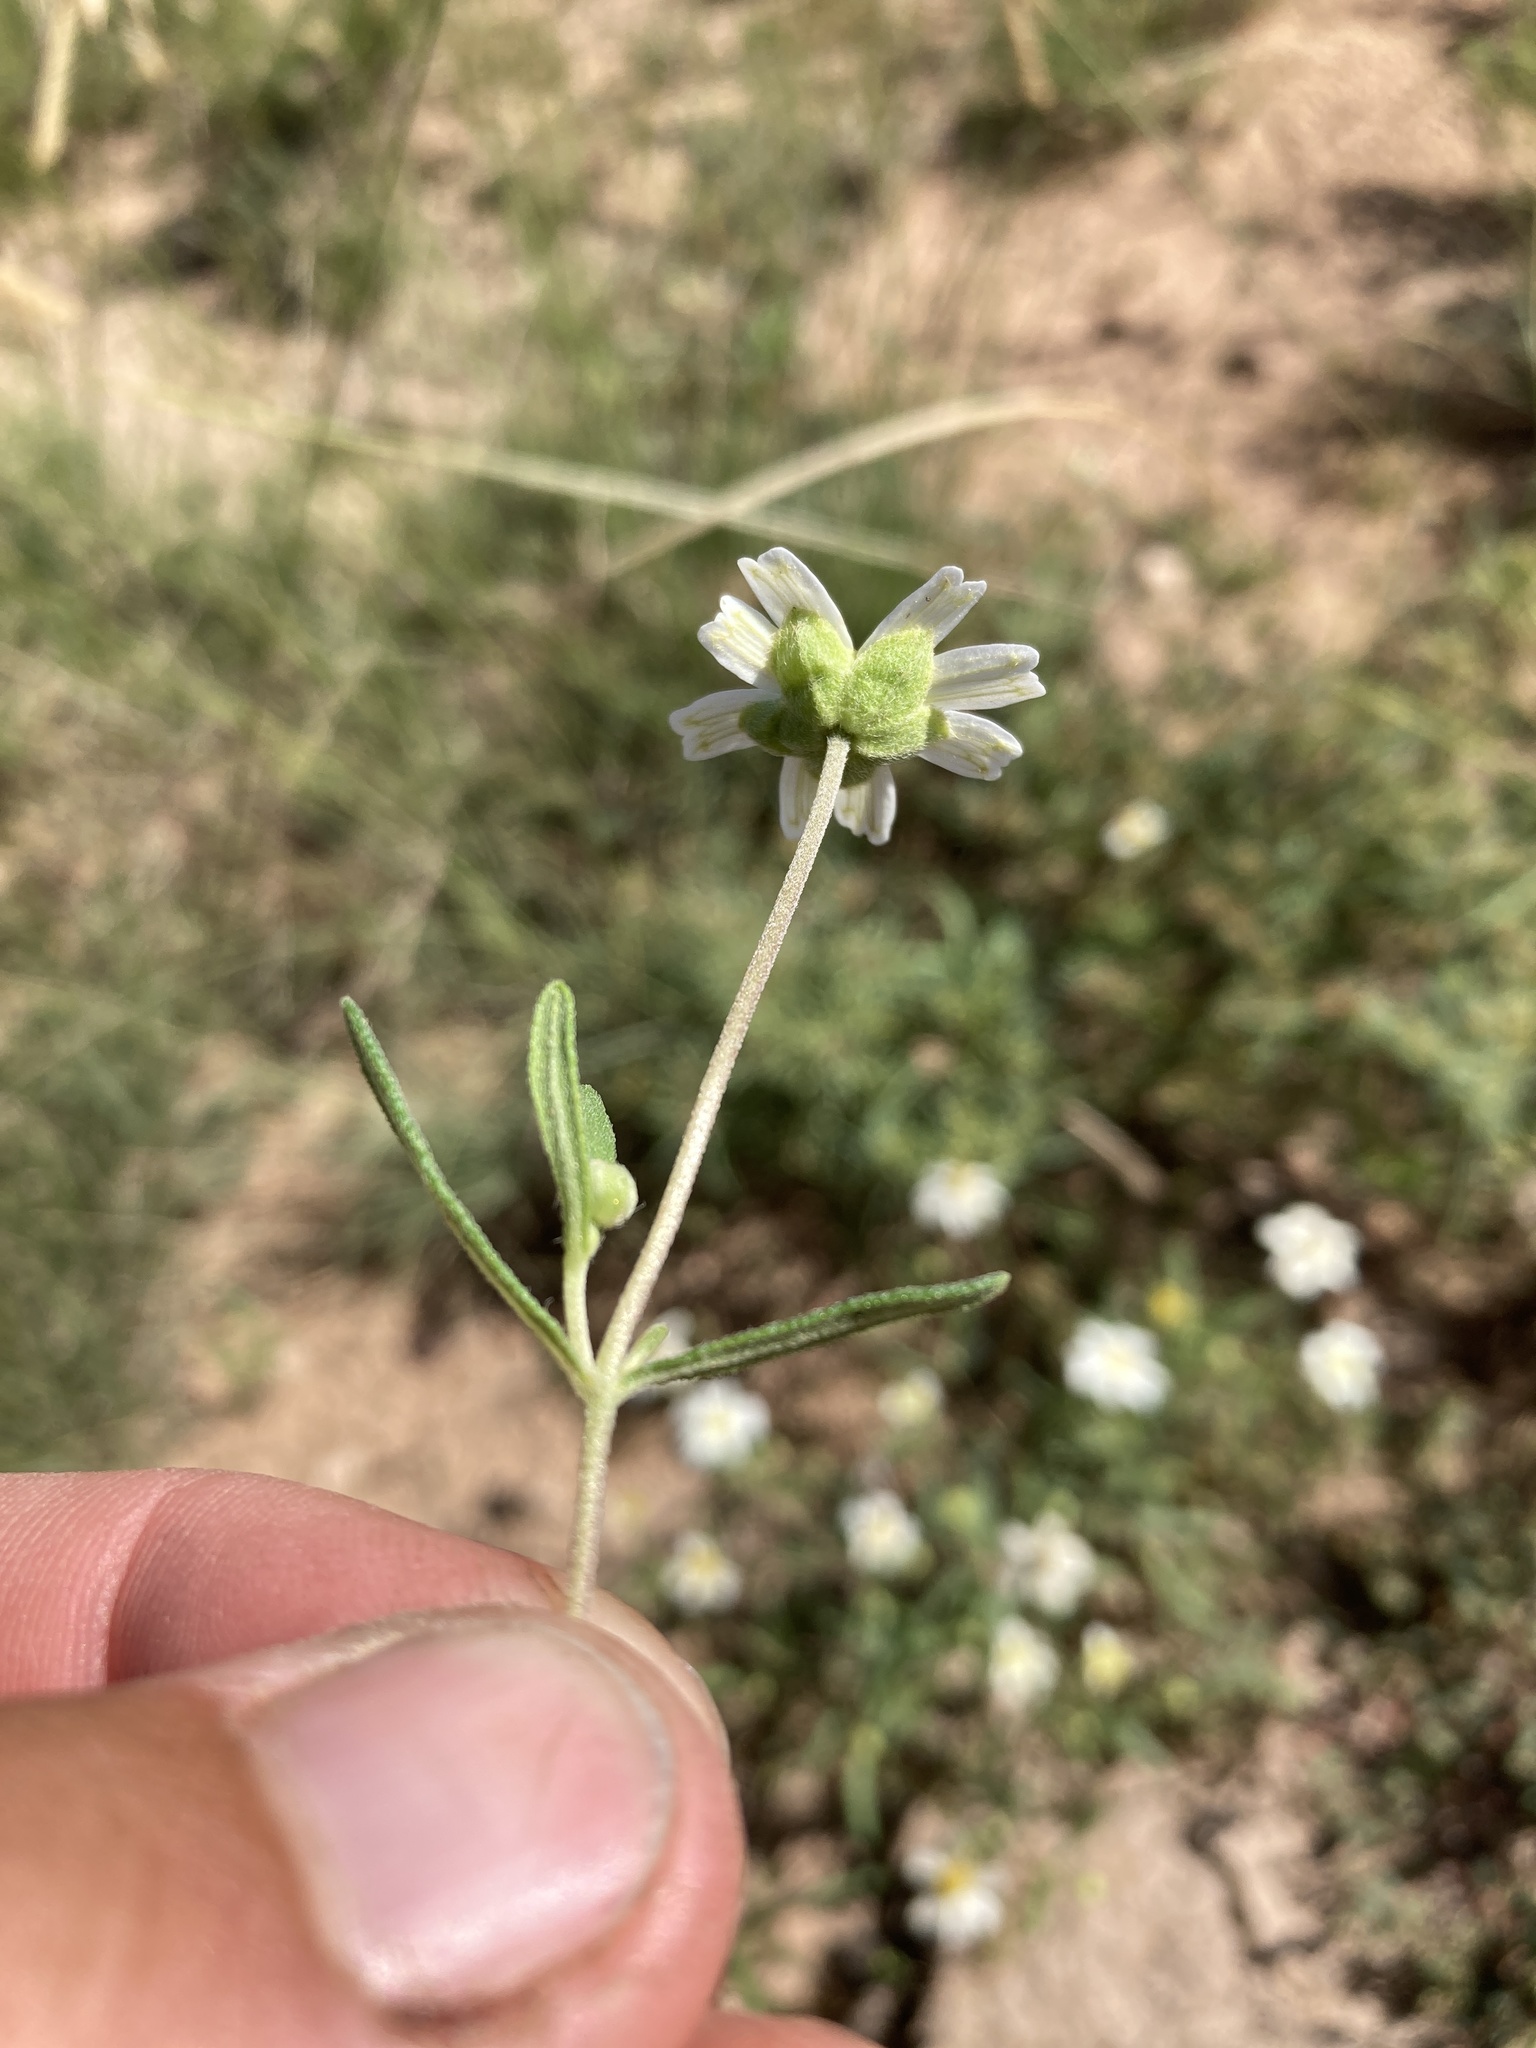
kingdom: Plantae
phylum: Tracheophyta
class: Magnoliopsida
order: Asterales
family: Asteraceae
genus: Melampodium
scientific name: Melampodium leucanthum
